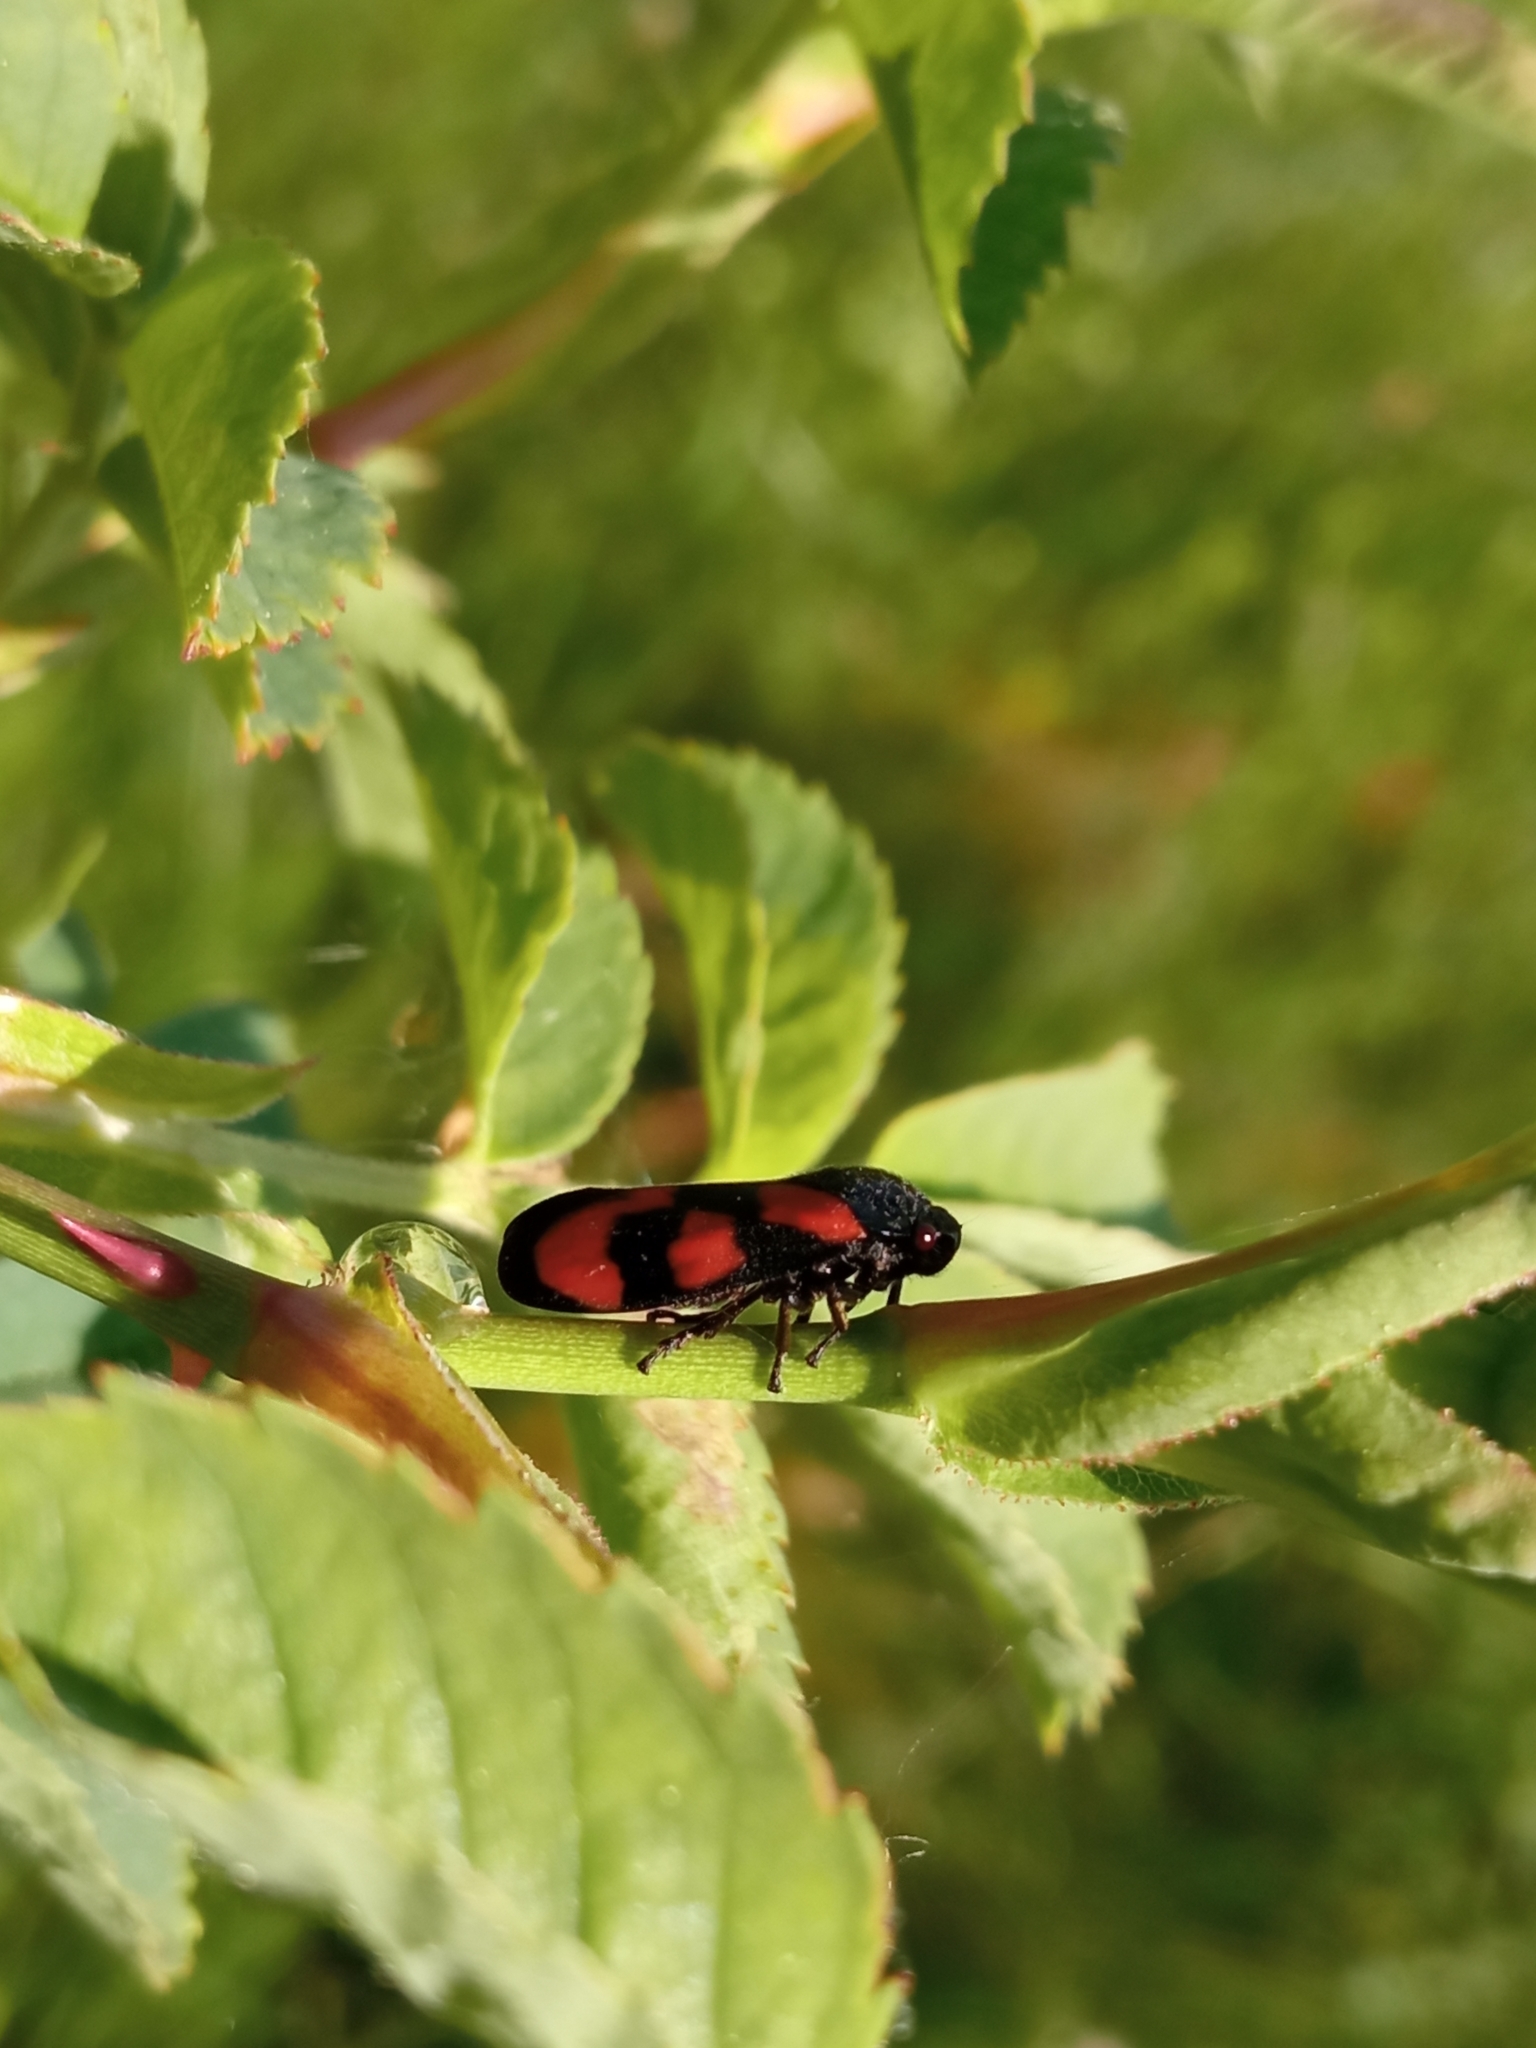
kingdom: Animalia
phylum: Arthropoda
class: Insecta
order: Hemiptera
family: Cercopidae
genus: Cercopis
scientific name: Cercopis vulnerata
